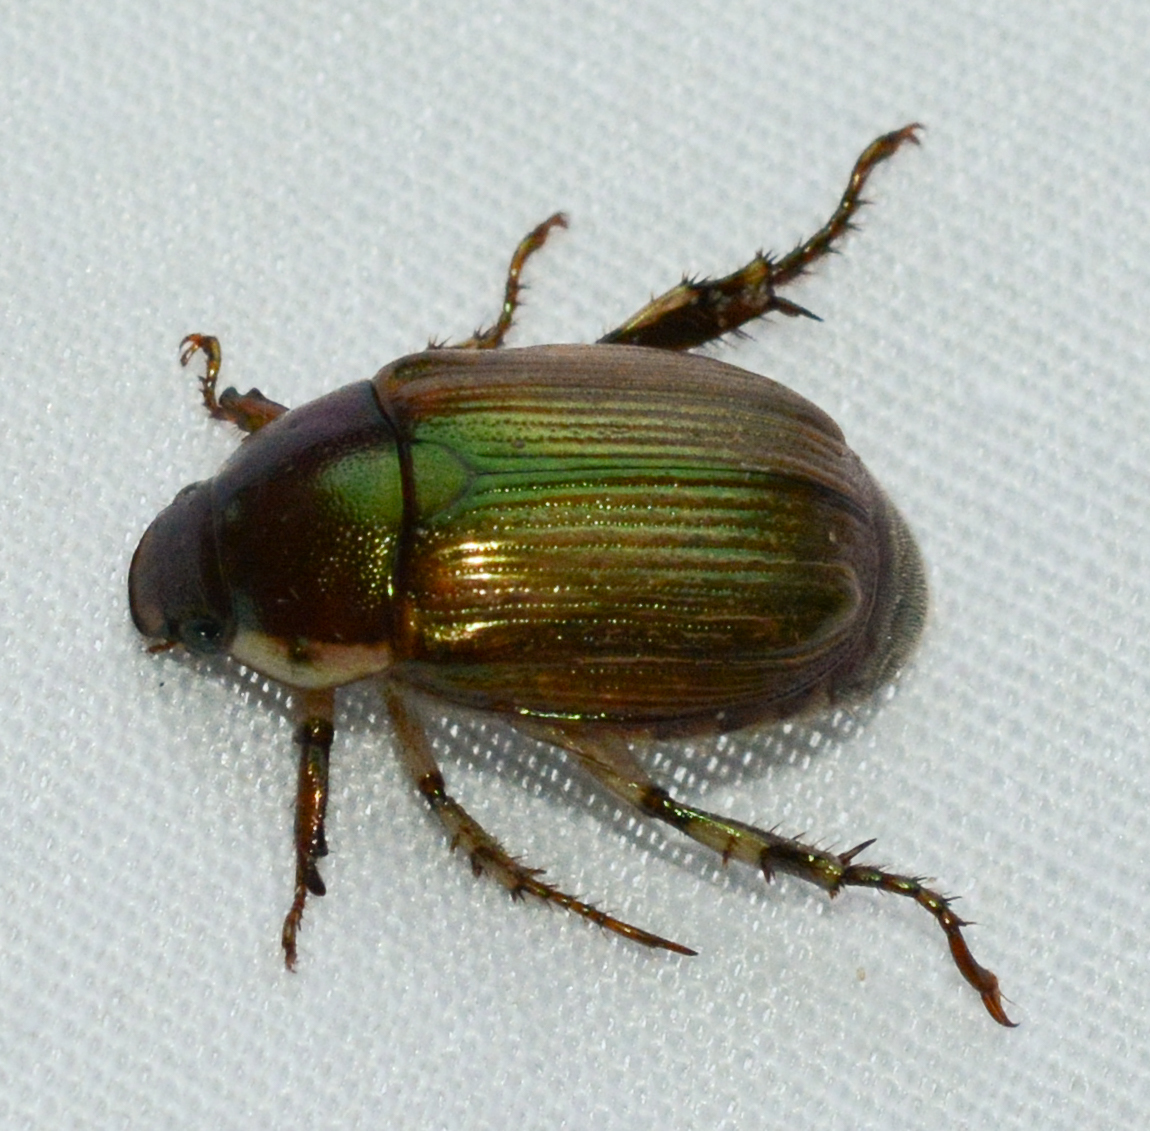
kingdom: Animalia
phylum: Arthropoda
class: Insecta
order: Coleoptera
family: Scarabaeidae
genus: Callistethus
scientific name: Callistethus marginatus
